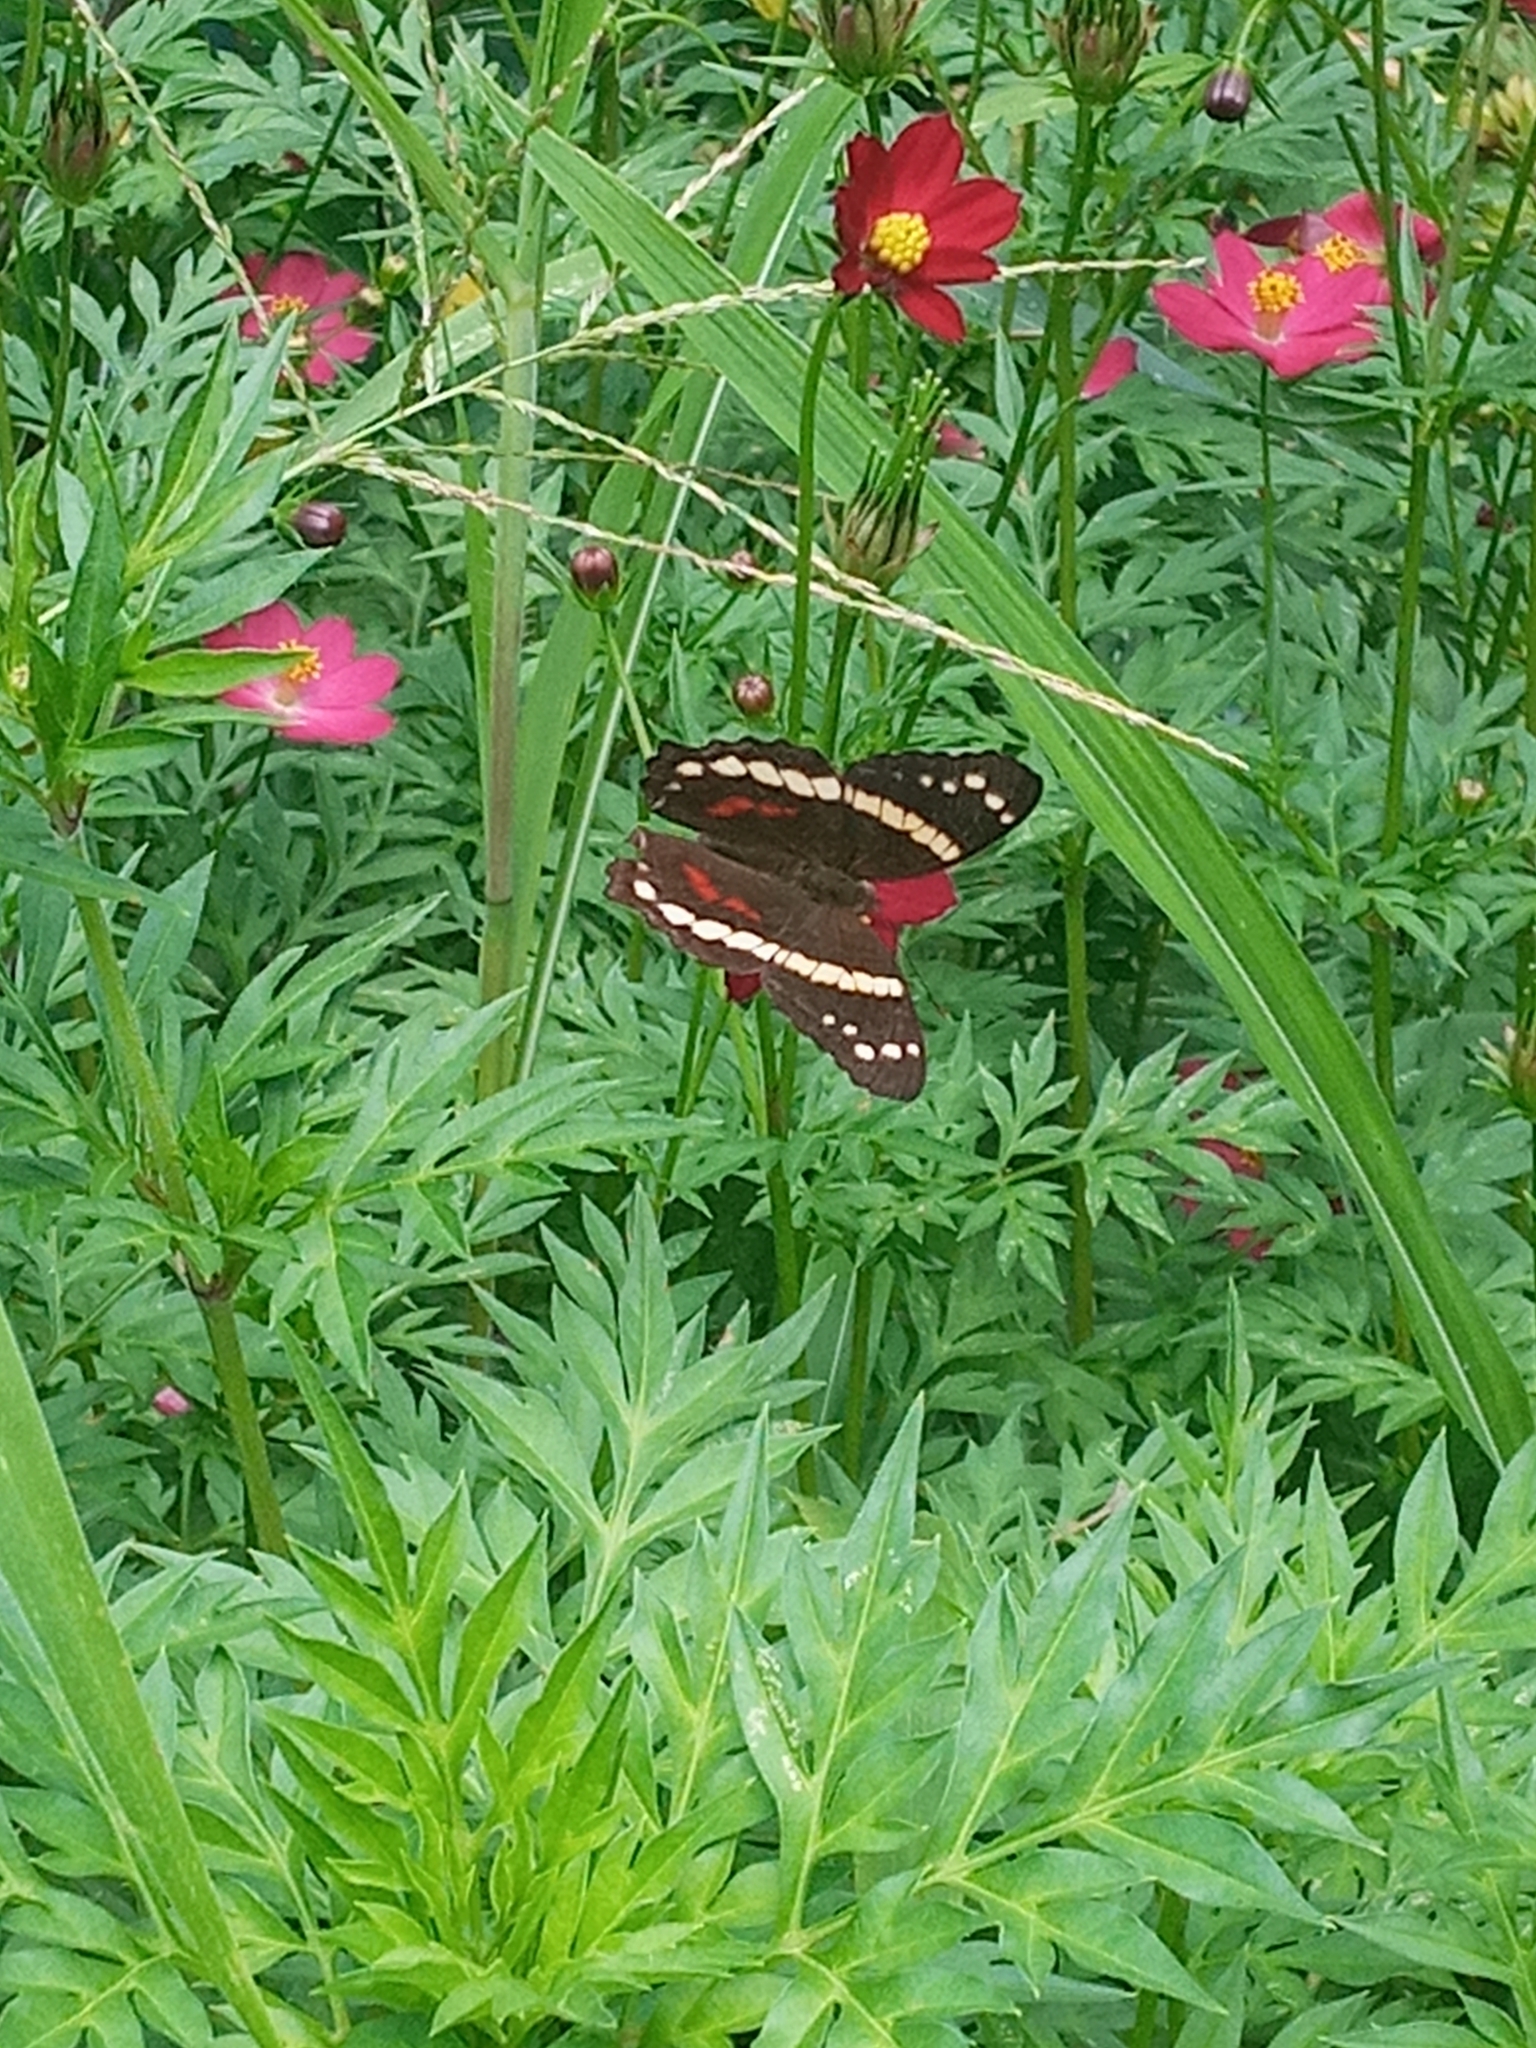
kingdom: Animalia
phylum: Arthropoda
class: Insecta
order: Lepidoptera
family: Nymphalidae
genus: Anartia
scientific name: Anartia fatima
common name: Banded peacock
